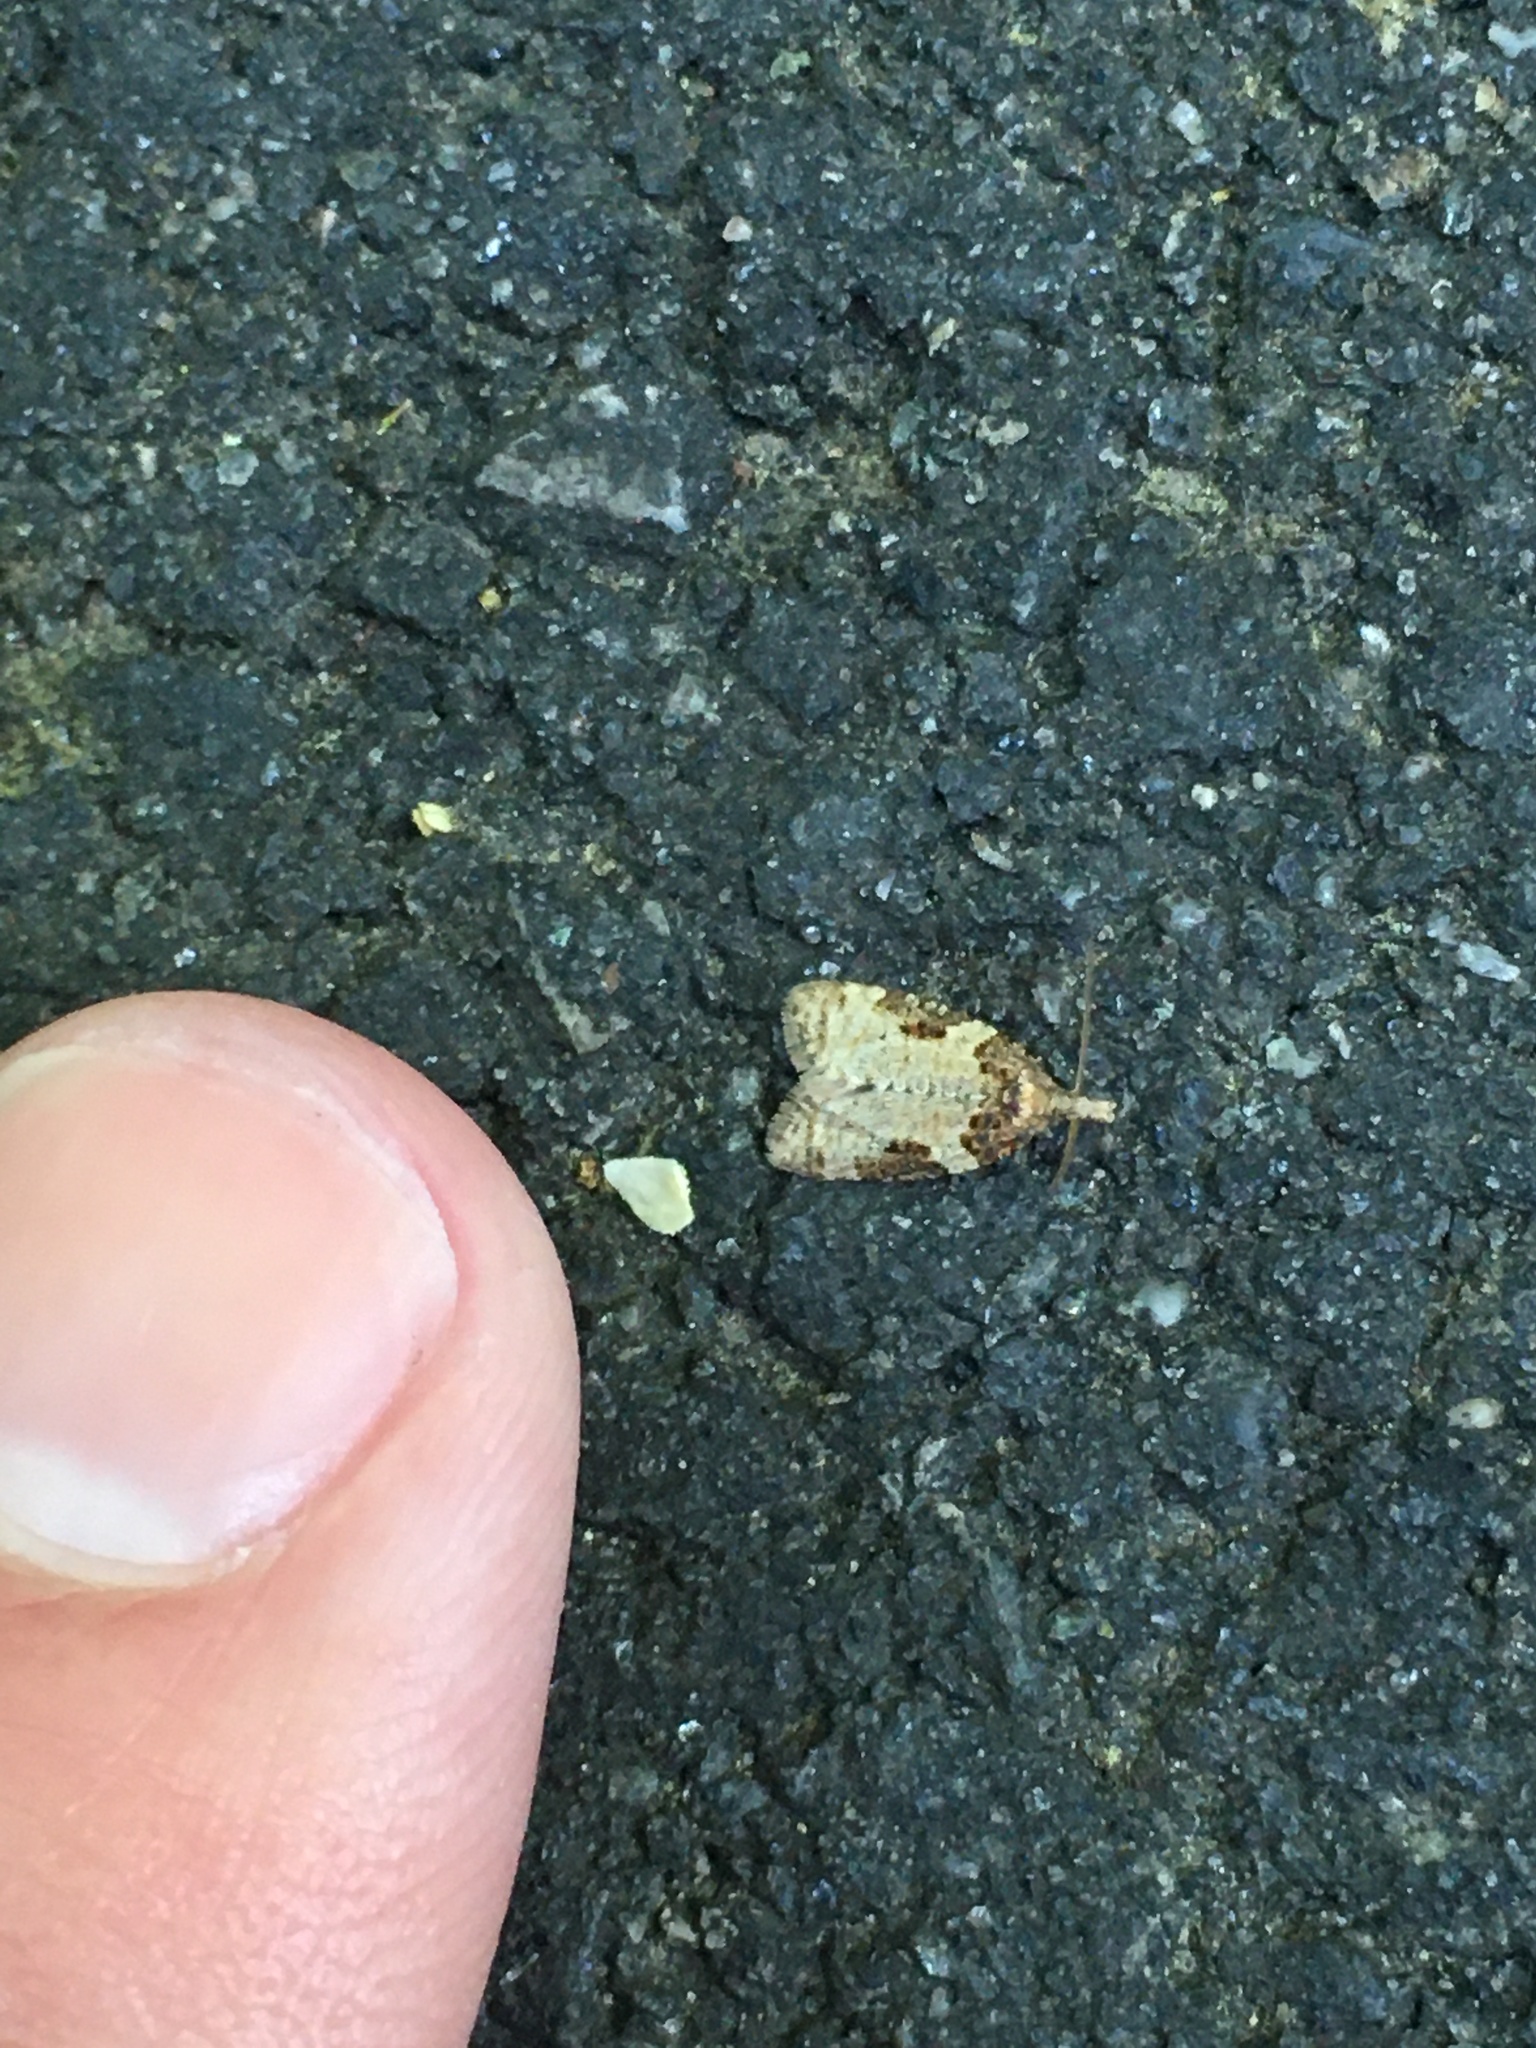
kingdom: Animalia
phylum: Arthropoda
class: Insecta
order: Lepidoptera
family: Tortricidae
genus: Anopina
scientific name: Anopina ednana
